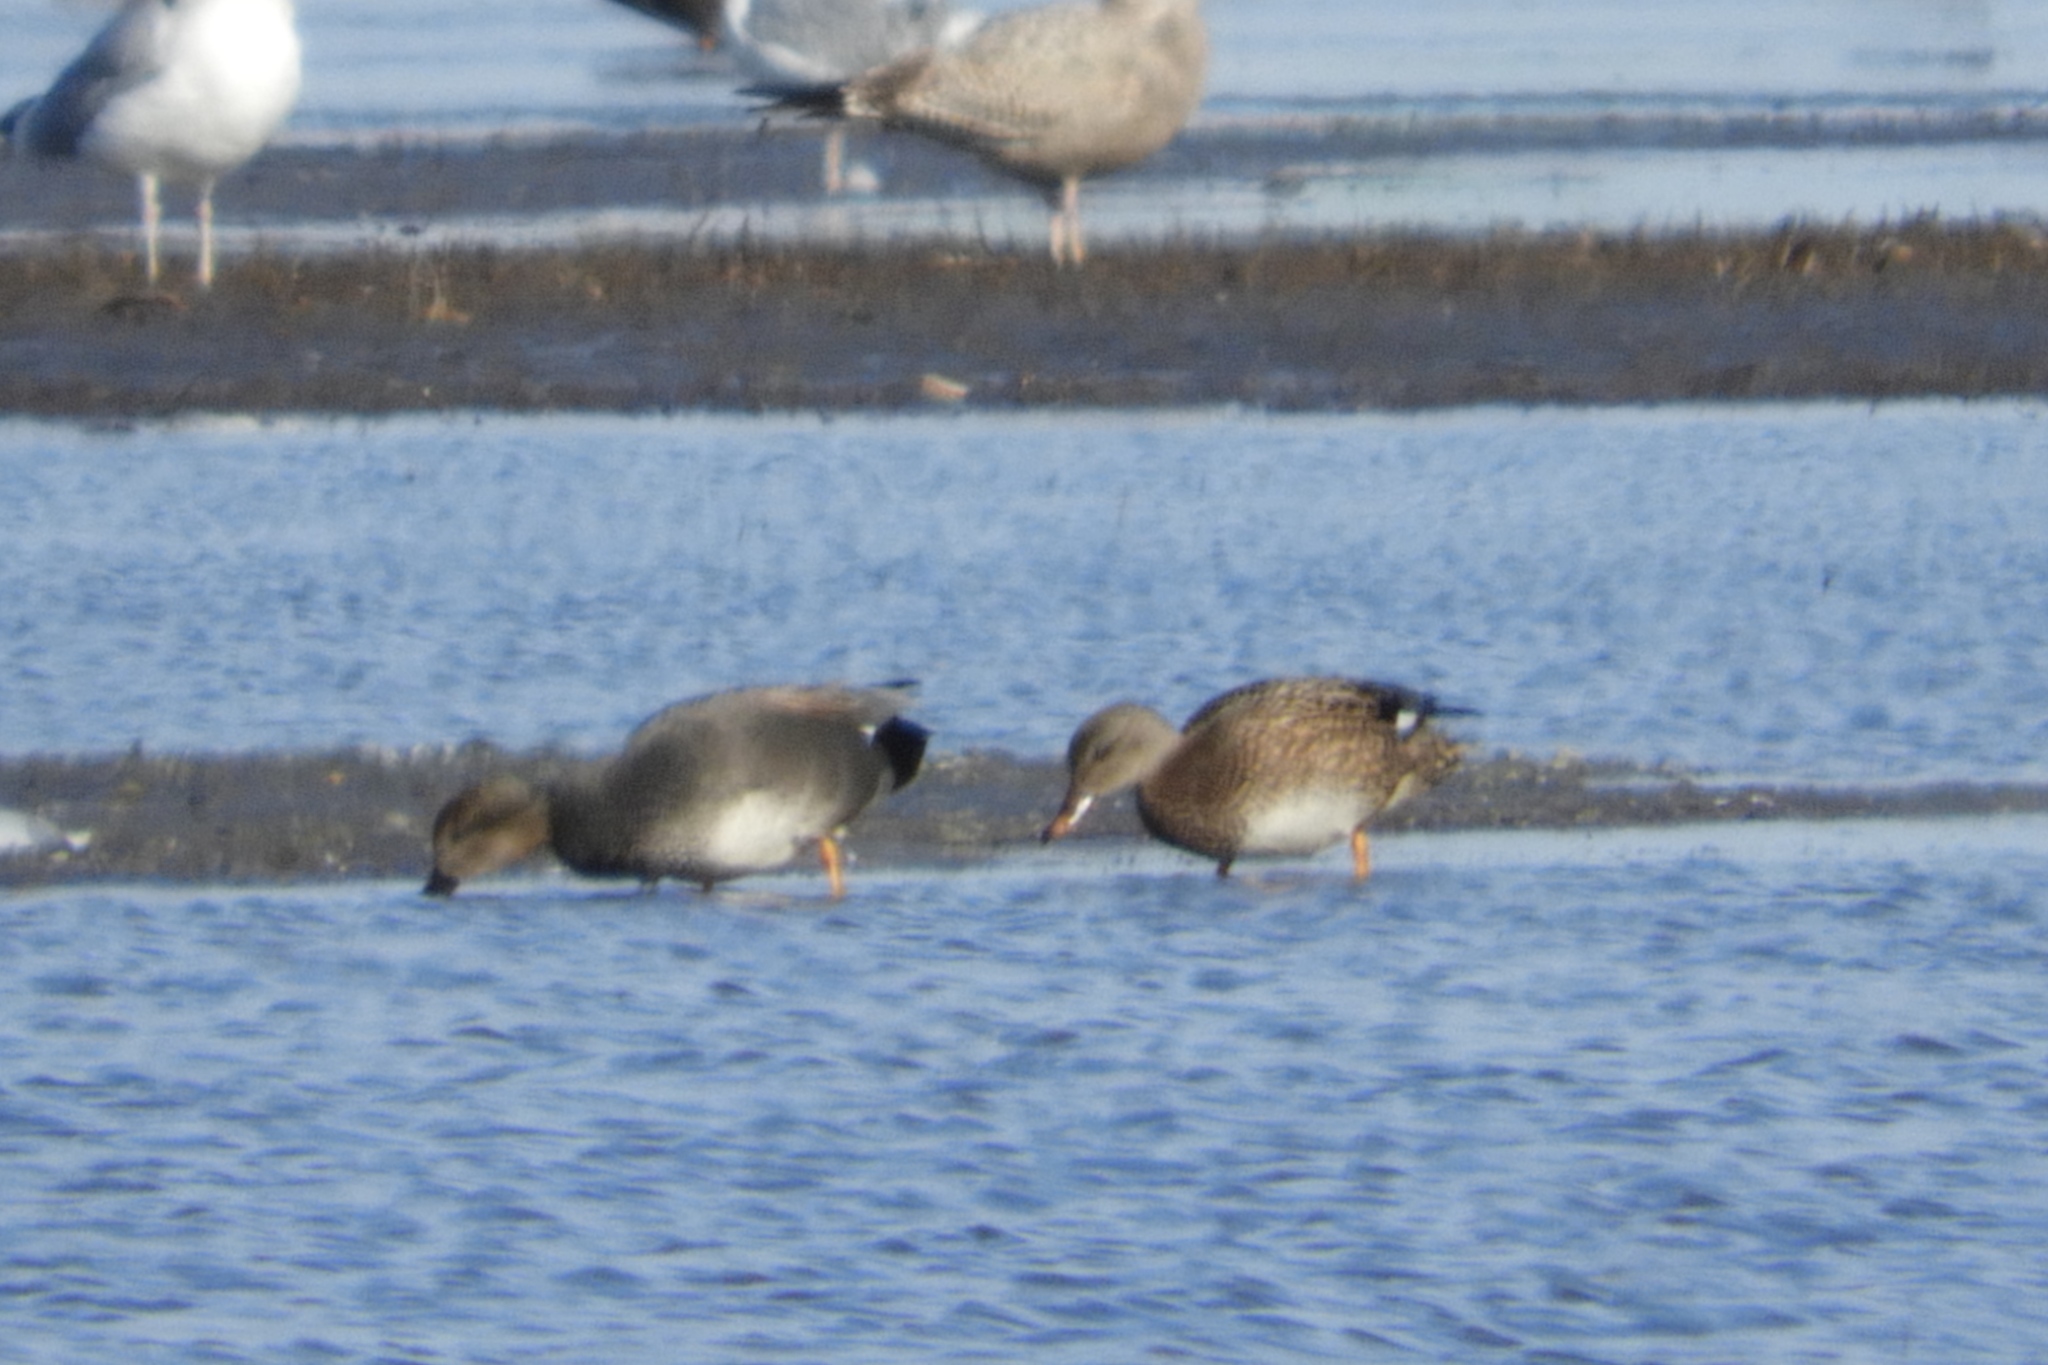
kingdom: Animalia
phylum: Chordata
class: Aves
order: Anseriformes
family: Anatidae
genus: Mareca
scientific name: Mareca strepera
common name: Gadwall
